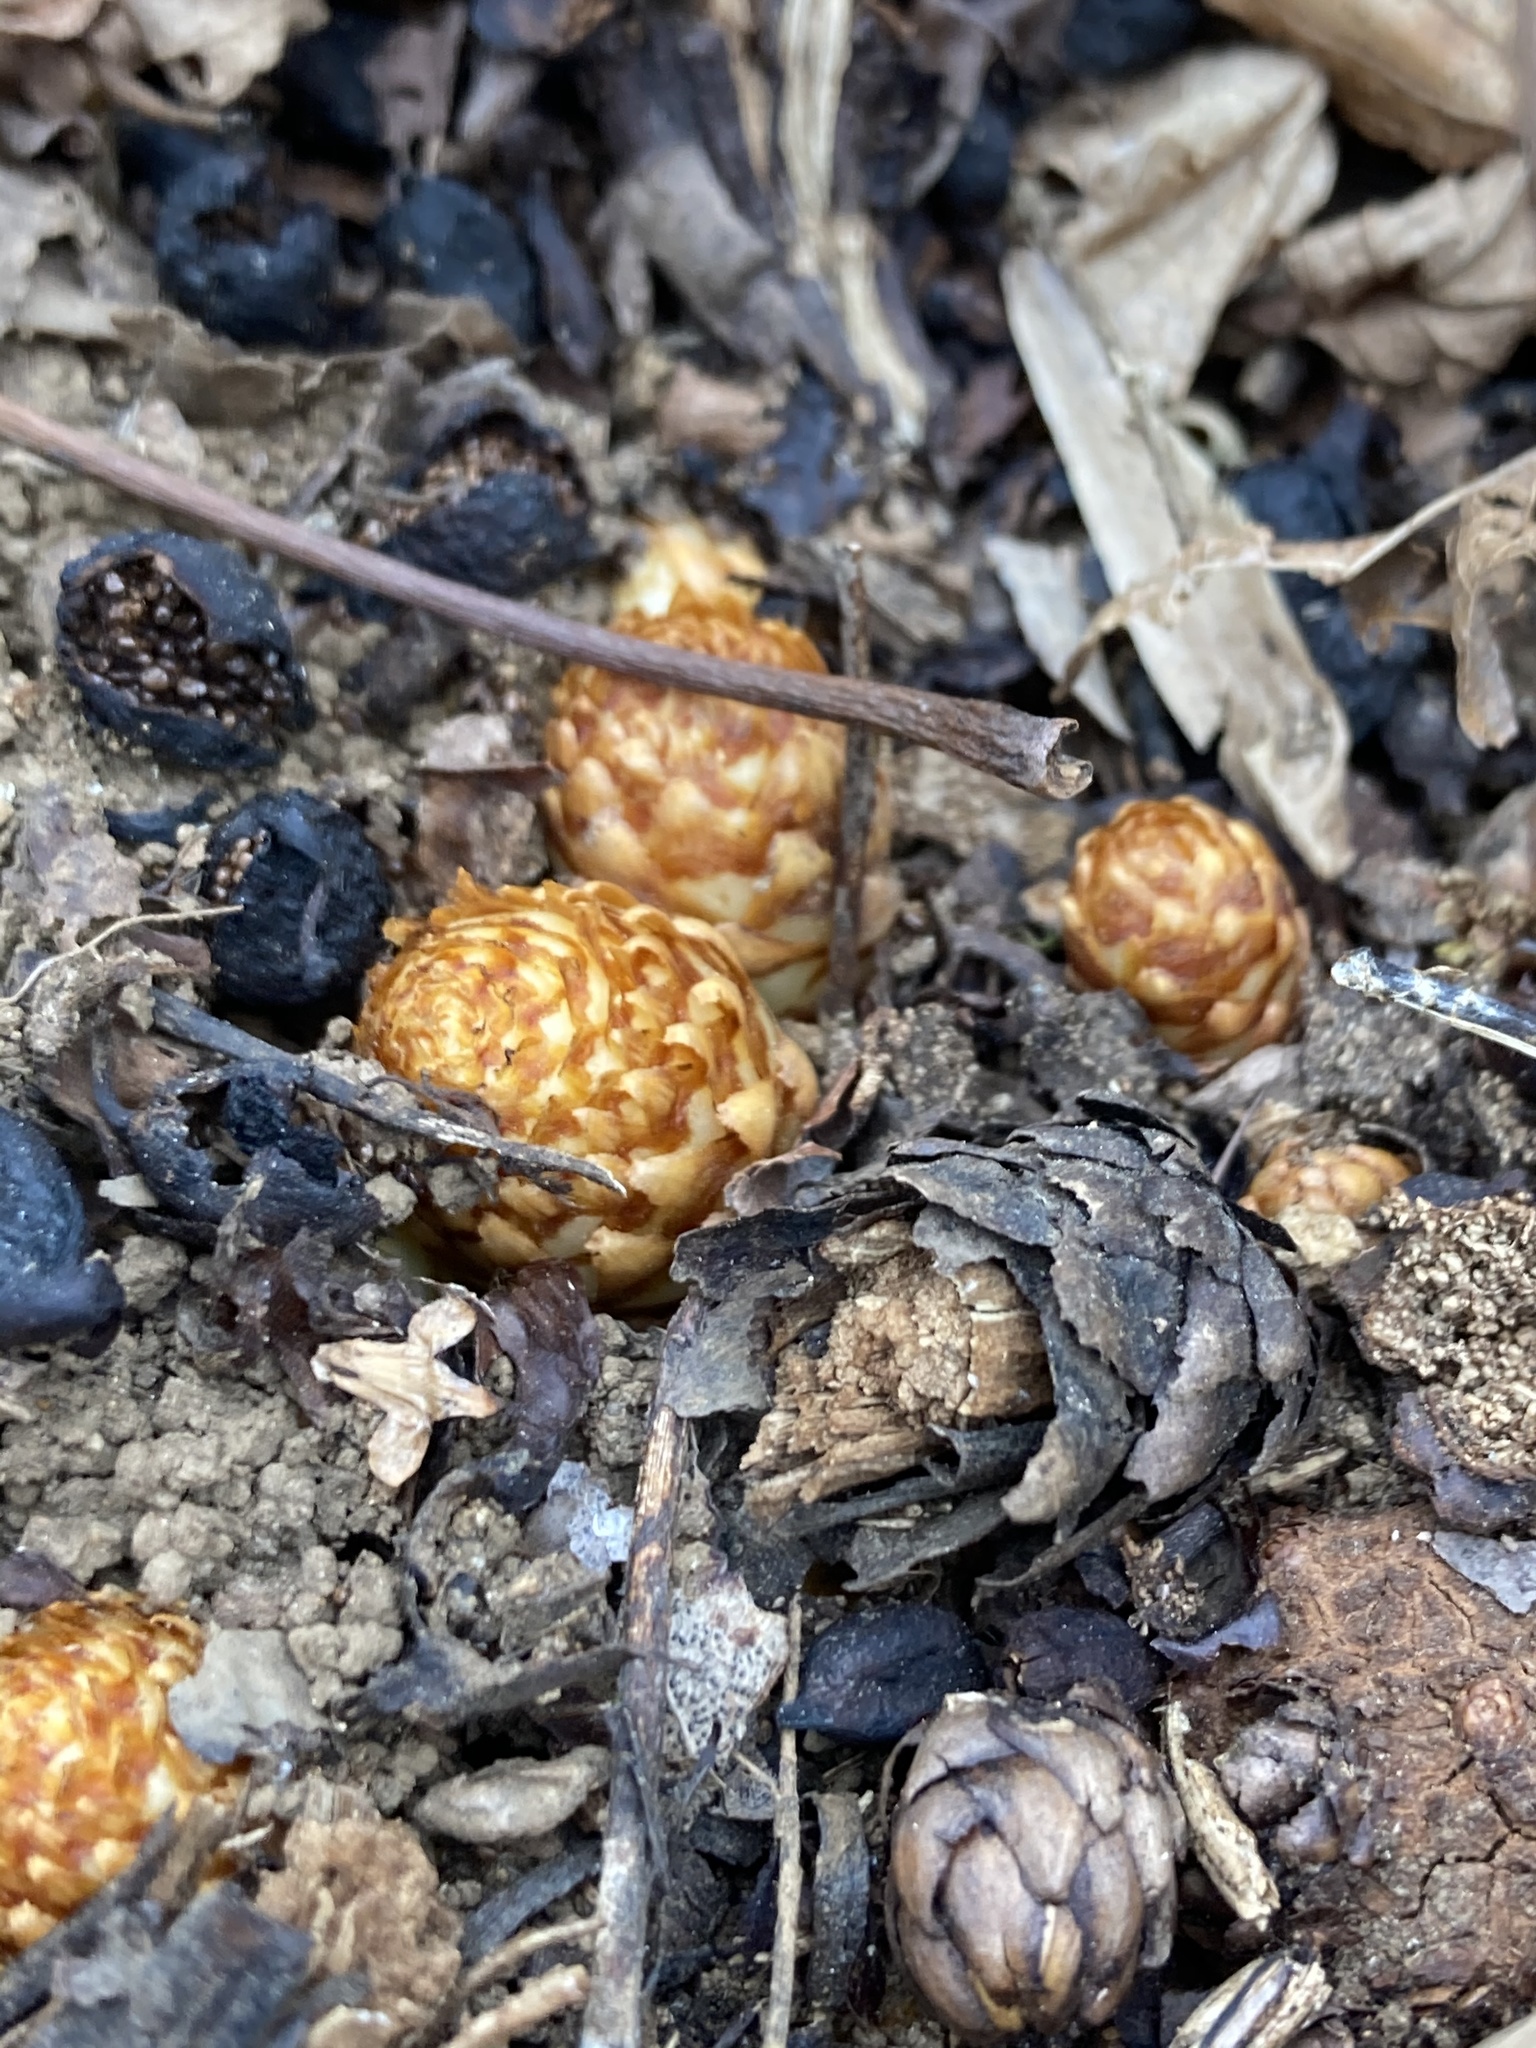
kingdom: Plantae
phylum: Tracheophyta
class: Magnoliopsida
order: Lamiales
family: Orobanchaceae
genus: Conopholis
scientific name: Conopholis americana
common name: American cancer-root
